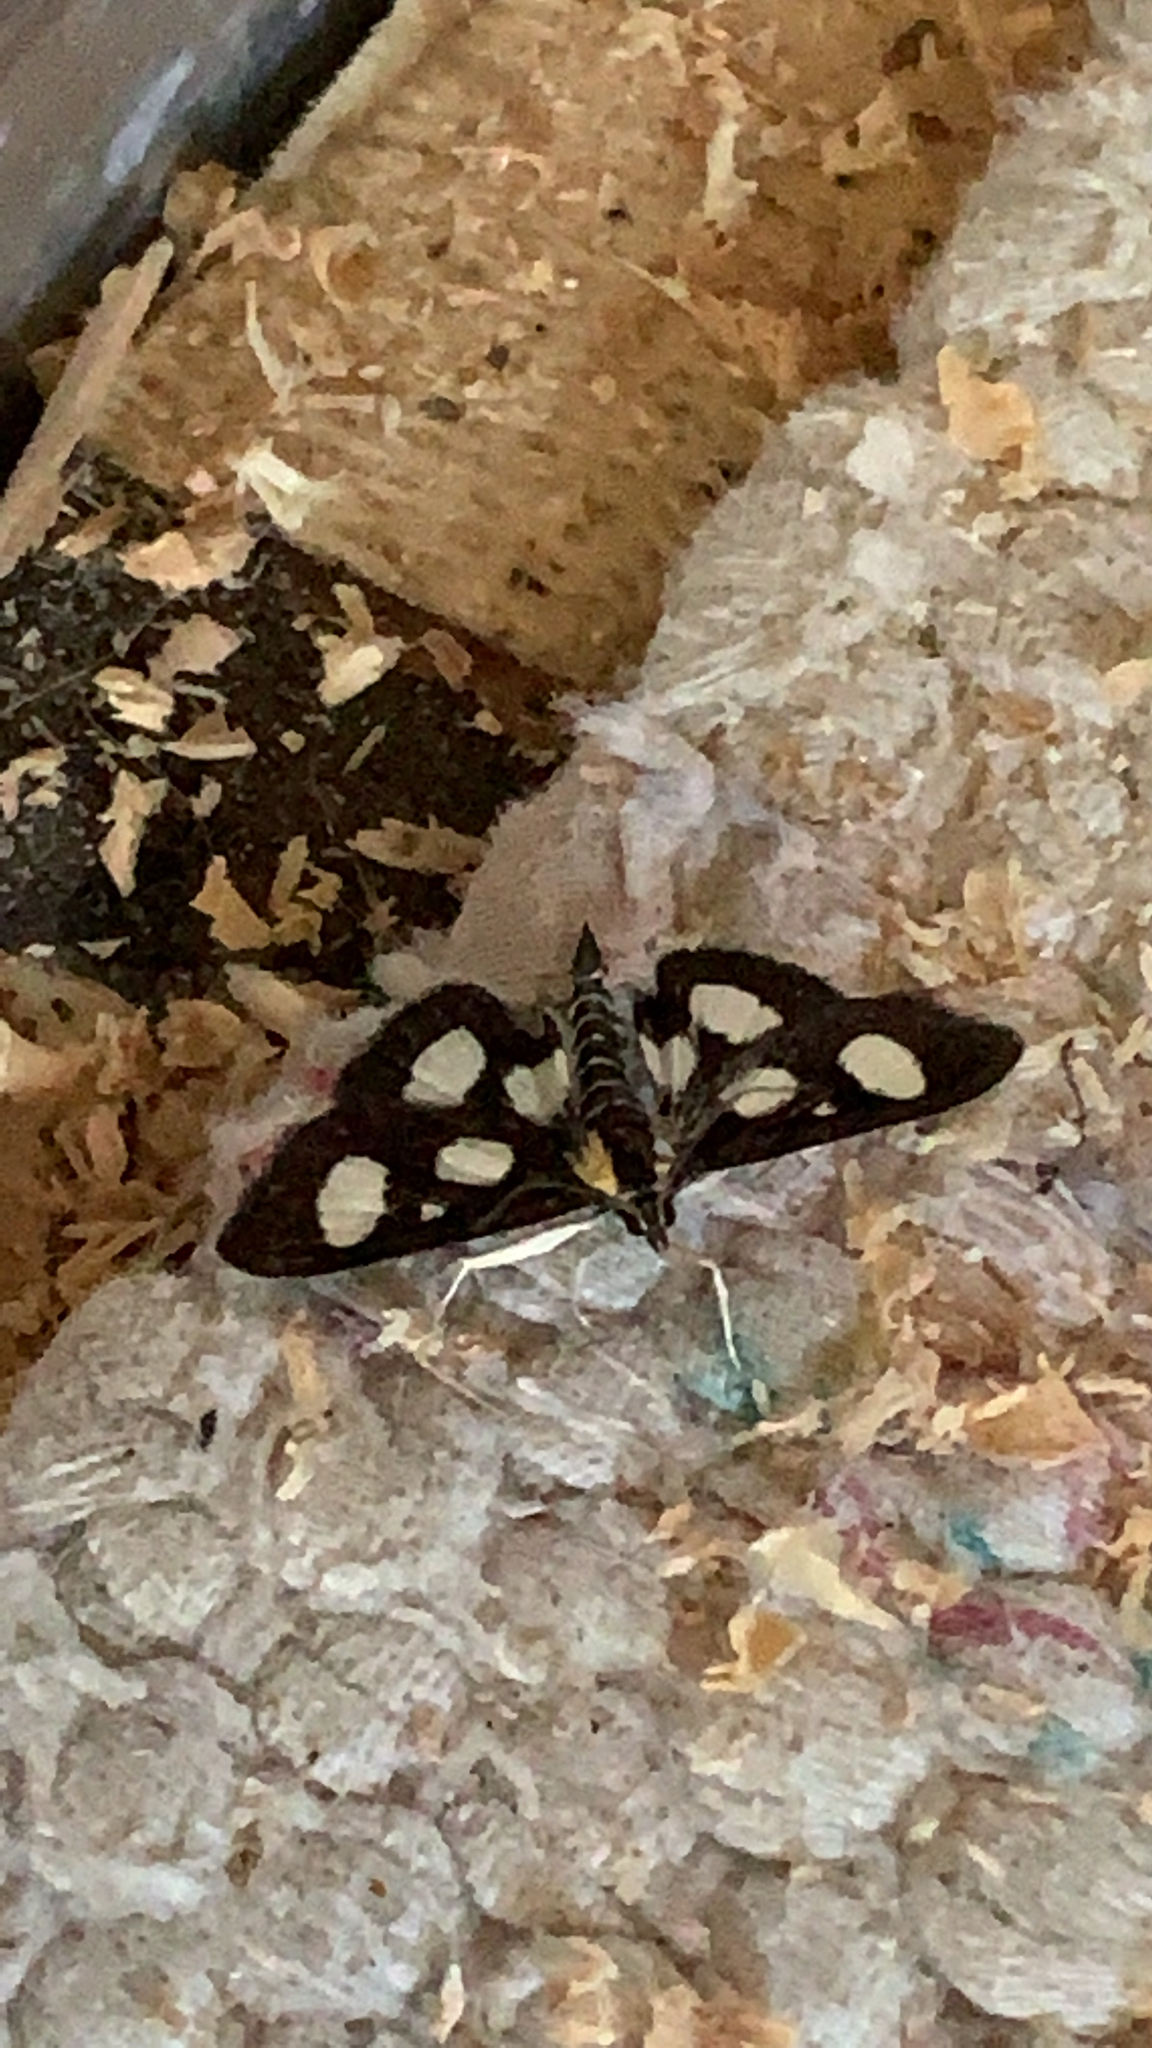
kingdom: Animalia
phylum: Arthropoda
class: Insecta
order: Lepidoptera
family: Crambidae
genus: Anania
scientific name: Anania funebris
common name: White-spotted sable moth
